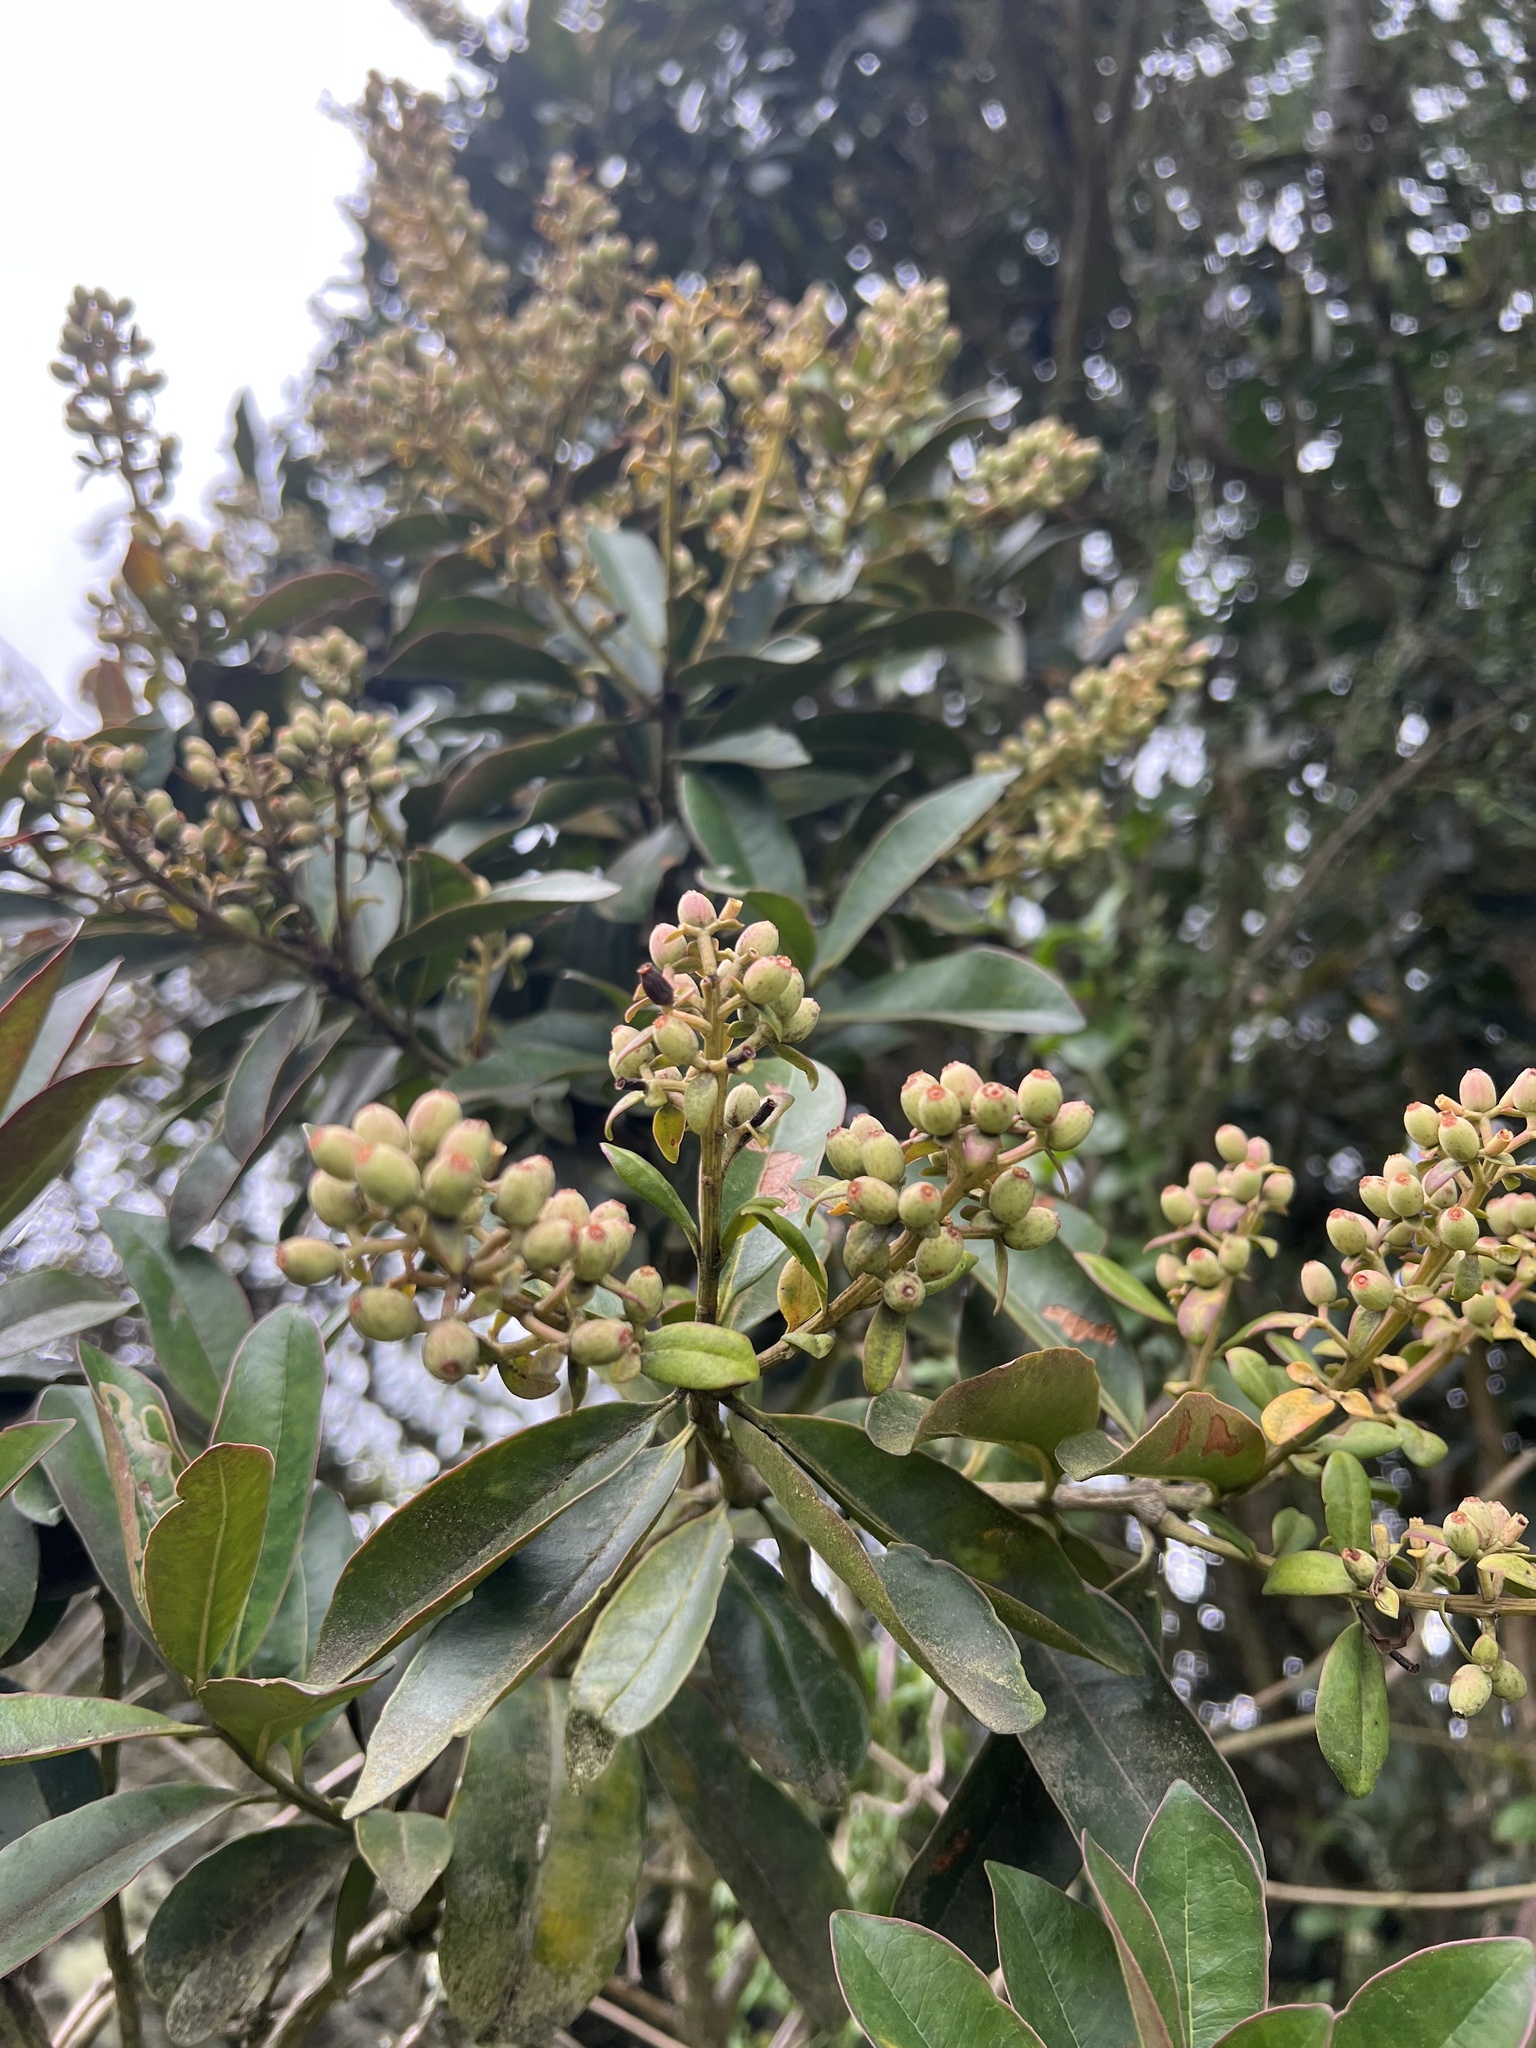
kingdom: Plantae
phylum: Tracheophyta
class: Magnoliopsida
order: Santalales
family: Loranthaceae
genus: Gaiadendron
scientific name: Gaiadendron punctatum
